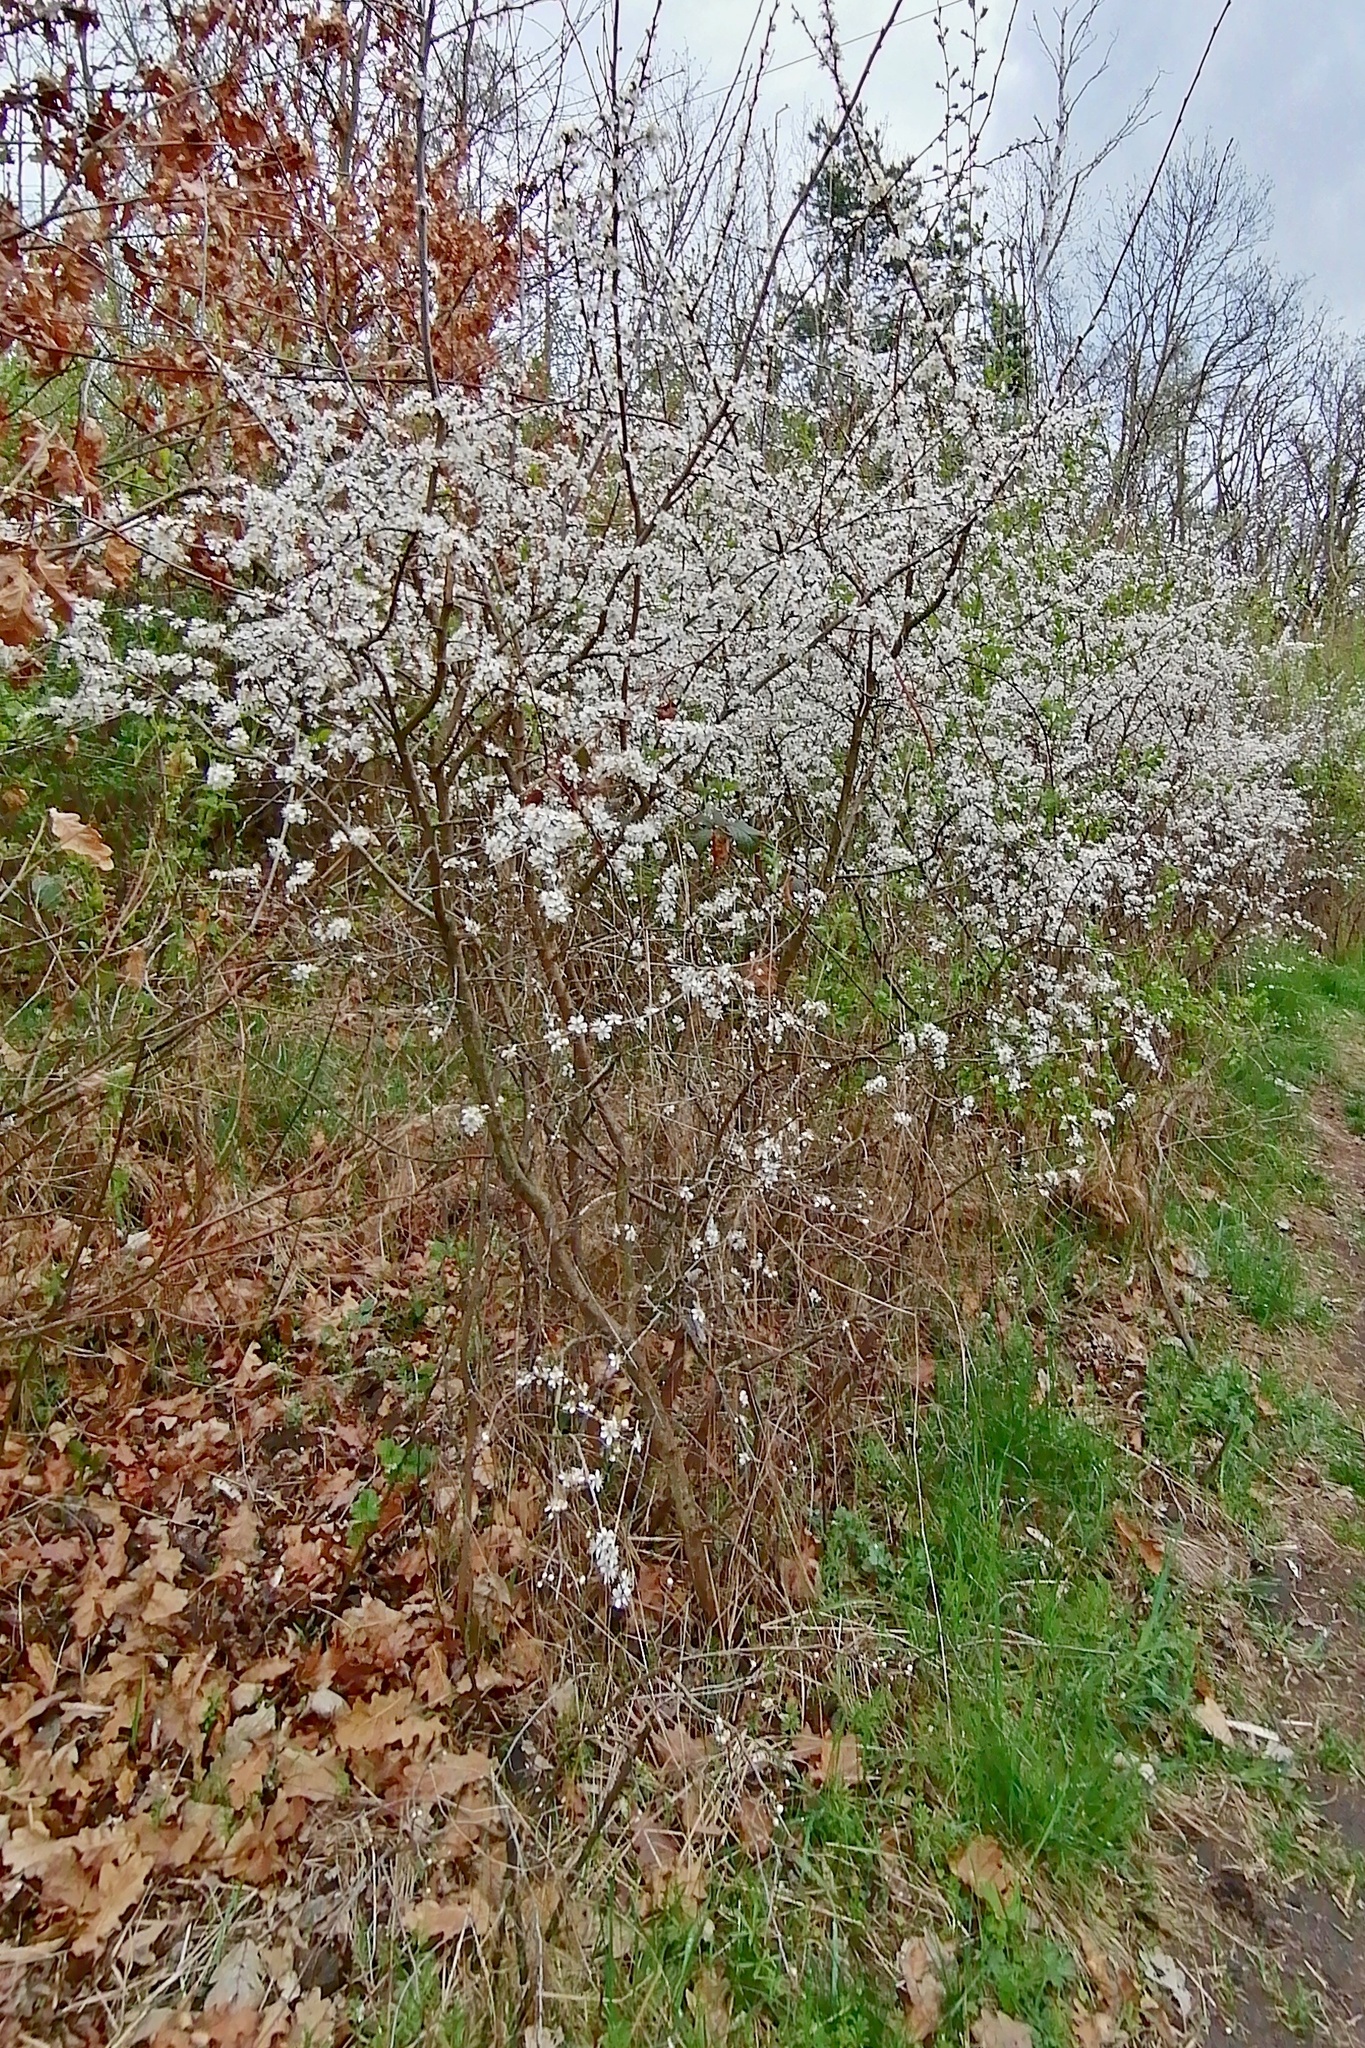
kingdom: Plantae
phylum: Tracheophyta
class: Magnoliopsida
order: Rosales
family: Rosaceae
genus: Prunus
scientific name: Prunus spinosa
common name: Blackthorn
